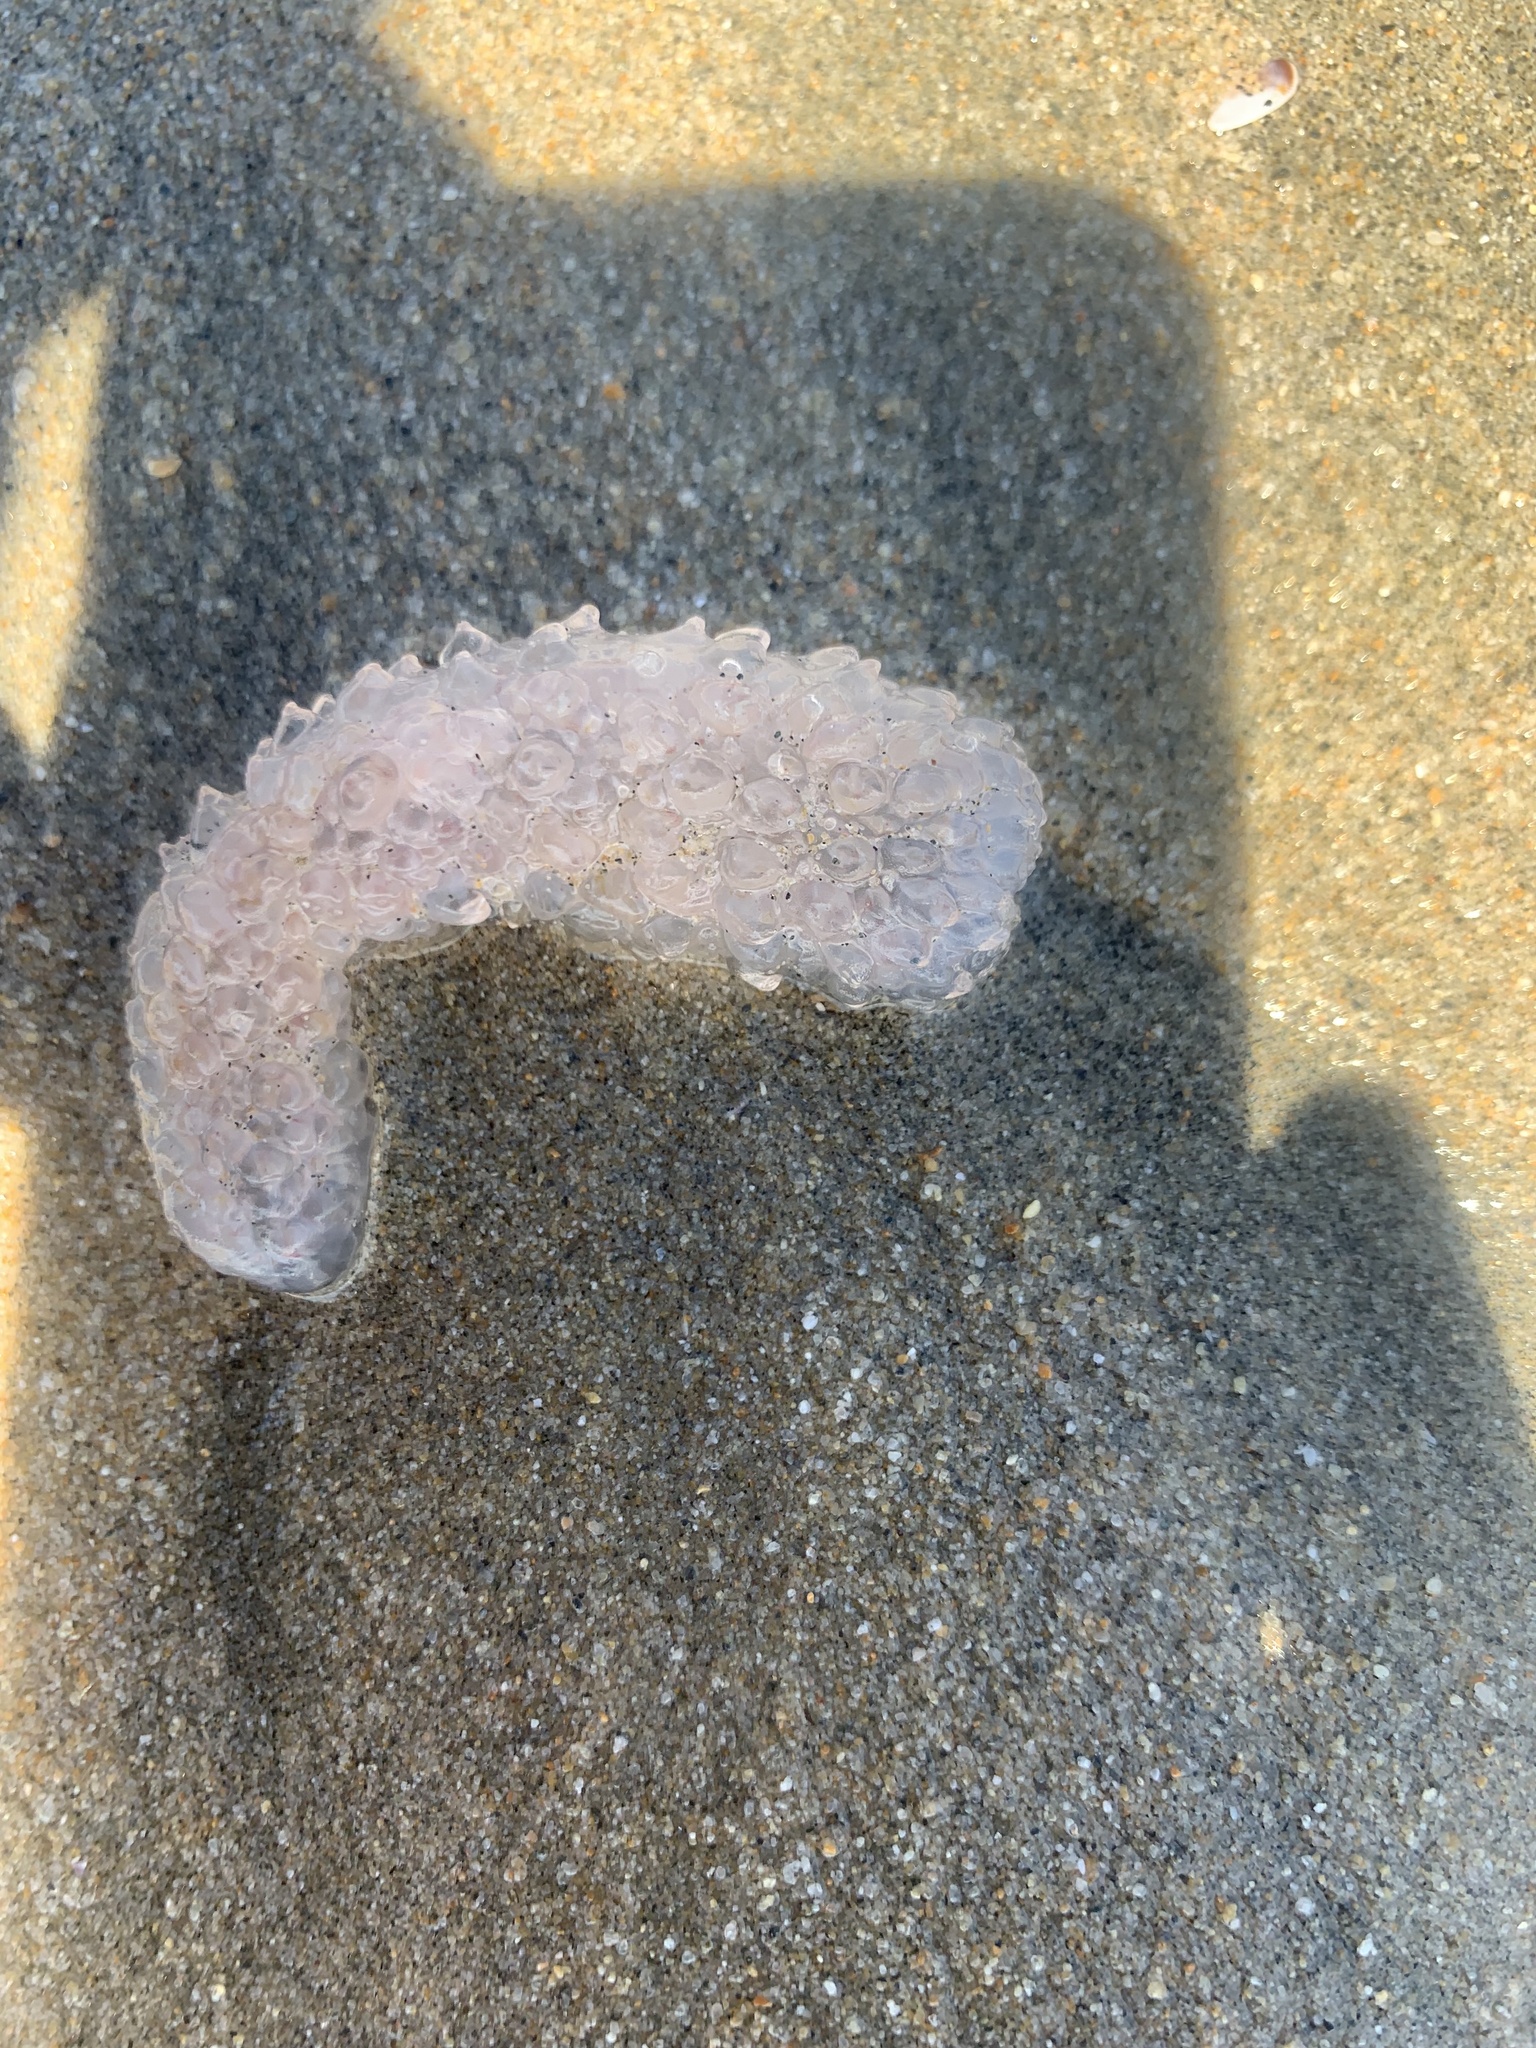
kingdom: Animalia
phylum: Chordata
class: Thaliacea
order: Pyrosomatida
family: Pyrosomatidae
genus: Pyrosoma
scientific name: Pyrosoma atlanticum
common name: Atlantic pyrosomes
